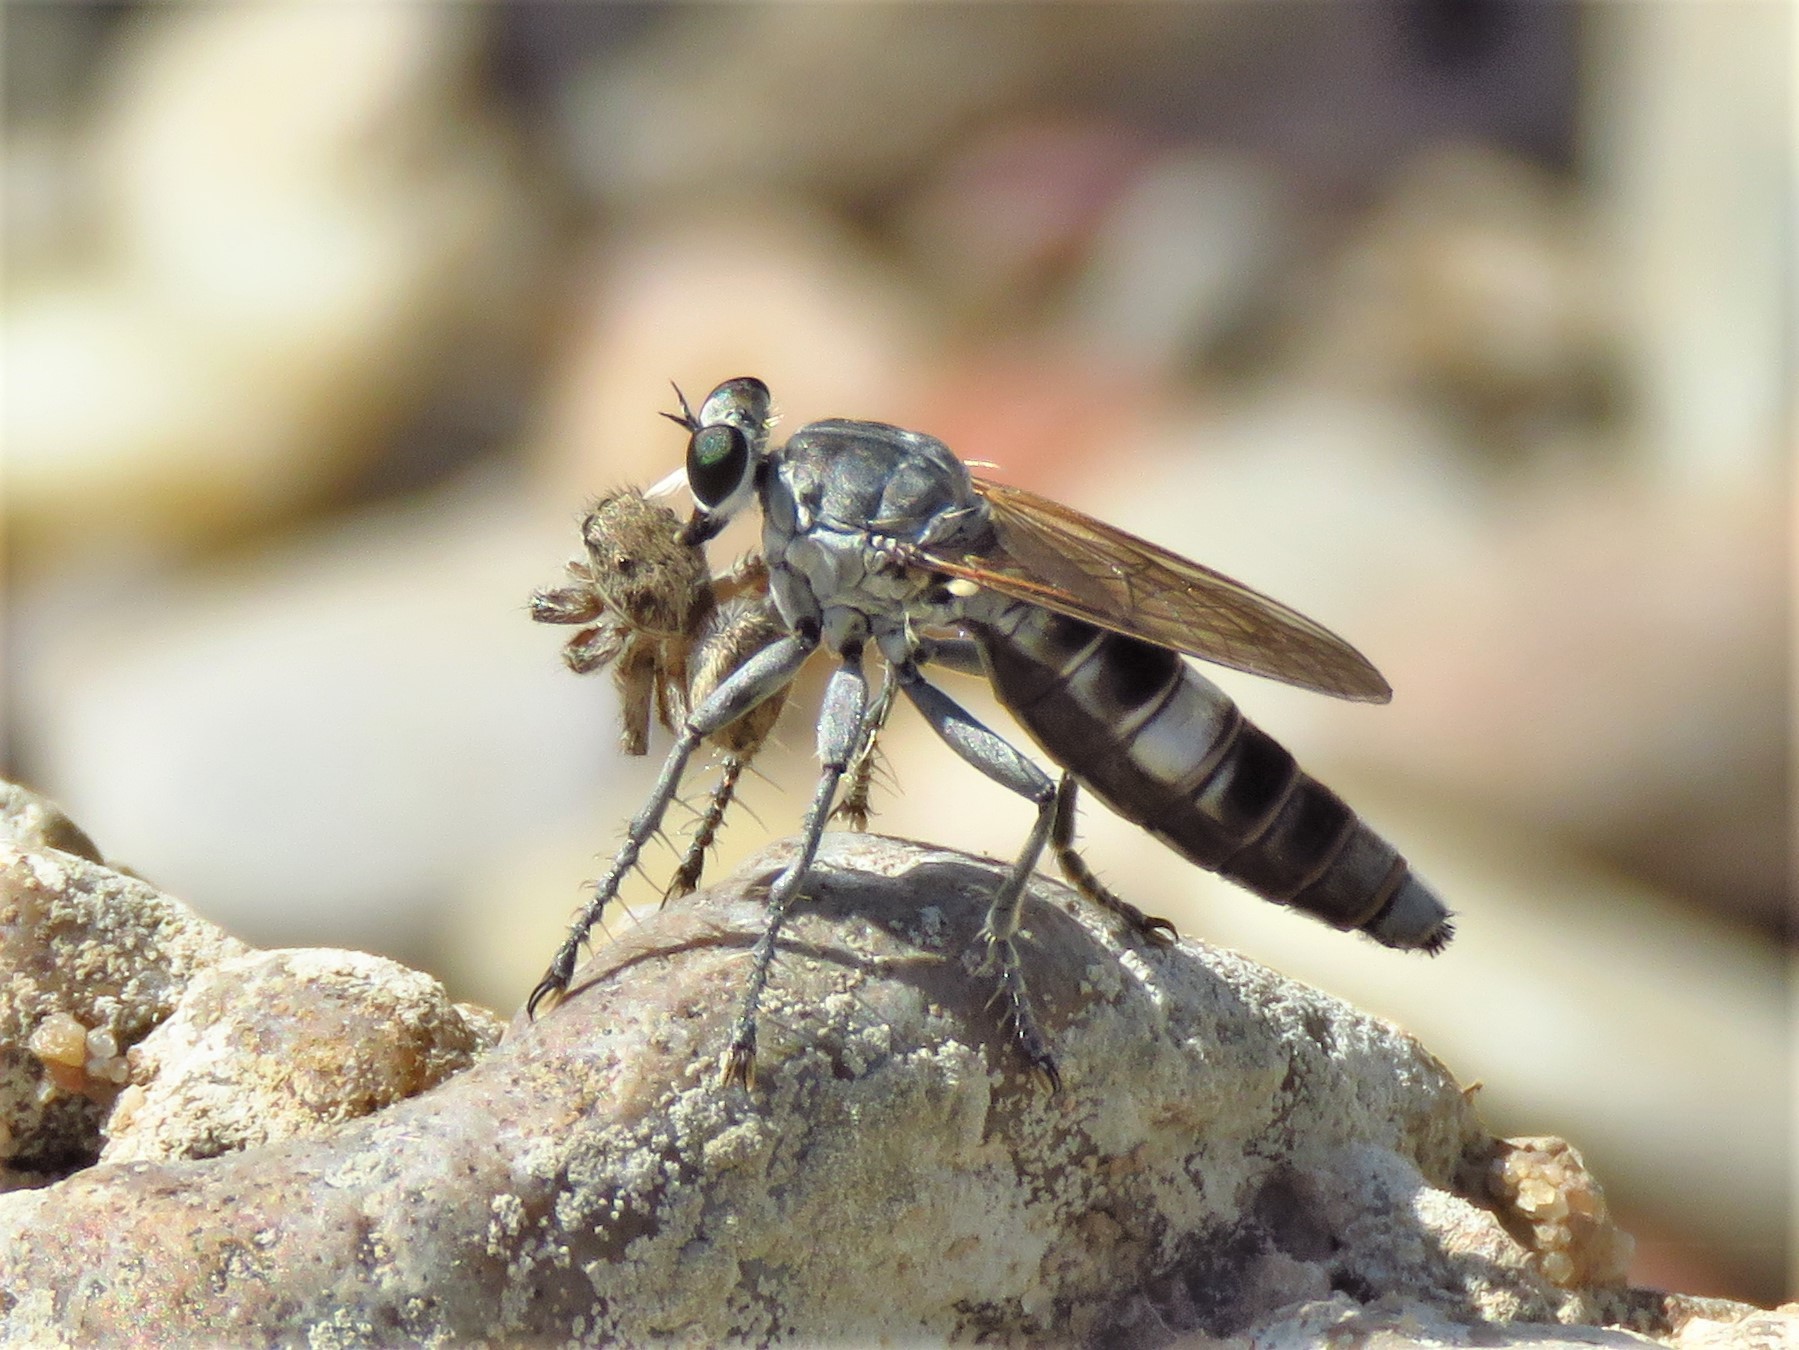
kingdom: Animalia
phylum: Arthropoda
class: Insecta
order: Diptera
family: Asilidae
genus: Stichopogon
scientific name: Stichopogon trifasciatus
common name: Three-banded robber fly
